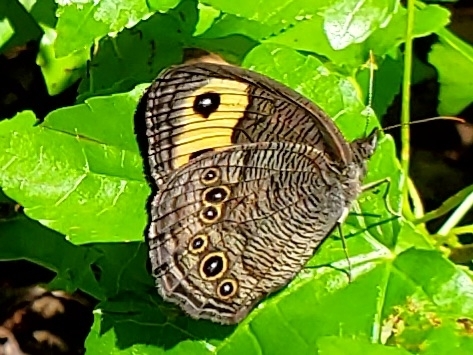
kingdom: Animalia
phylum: Arthropoda
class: Insecta
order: Lepidoptera
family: Nymphalidae
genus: Cercyonis
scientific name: Cercyonis pegala
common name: Common wood-nymph
